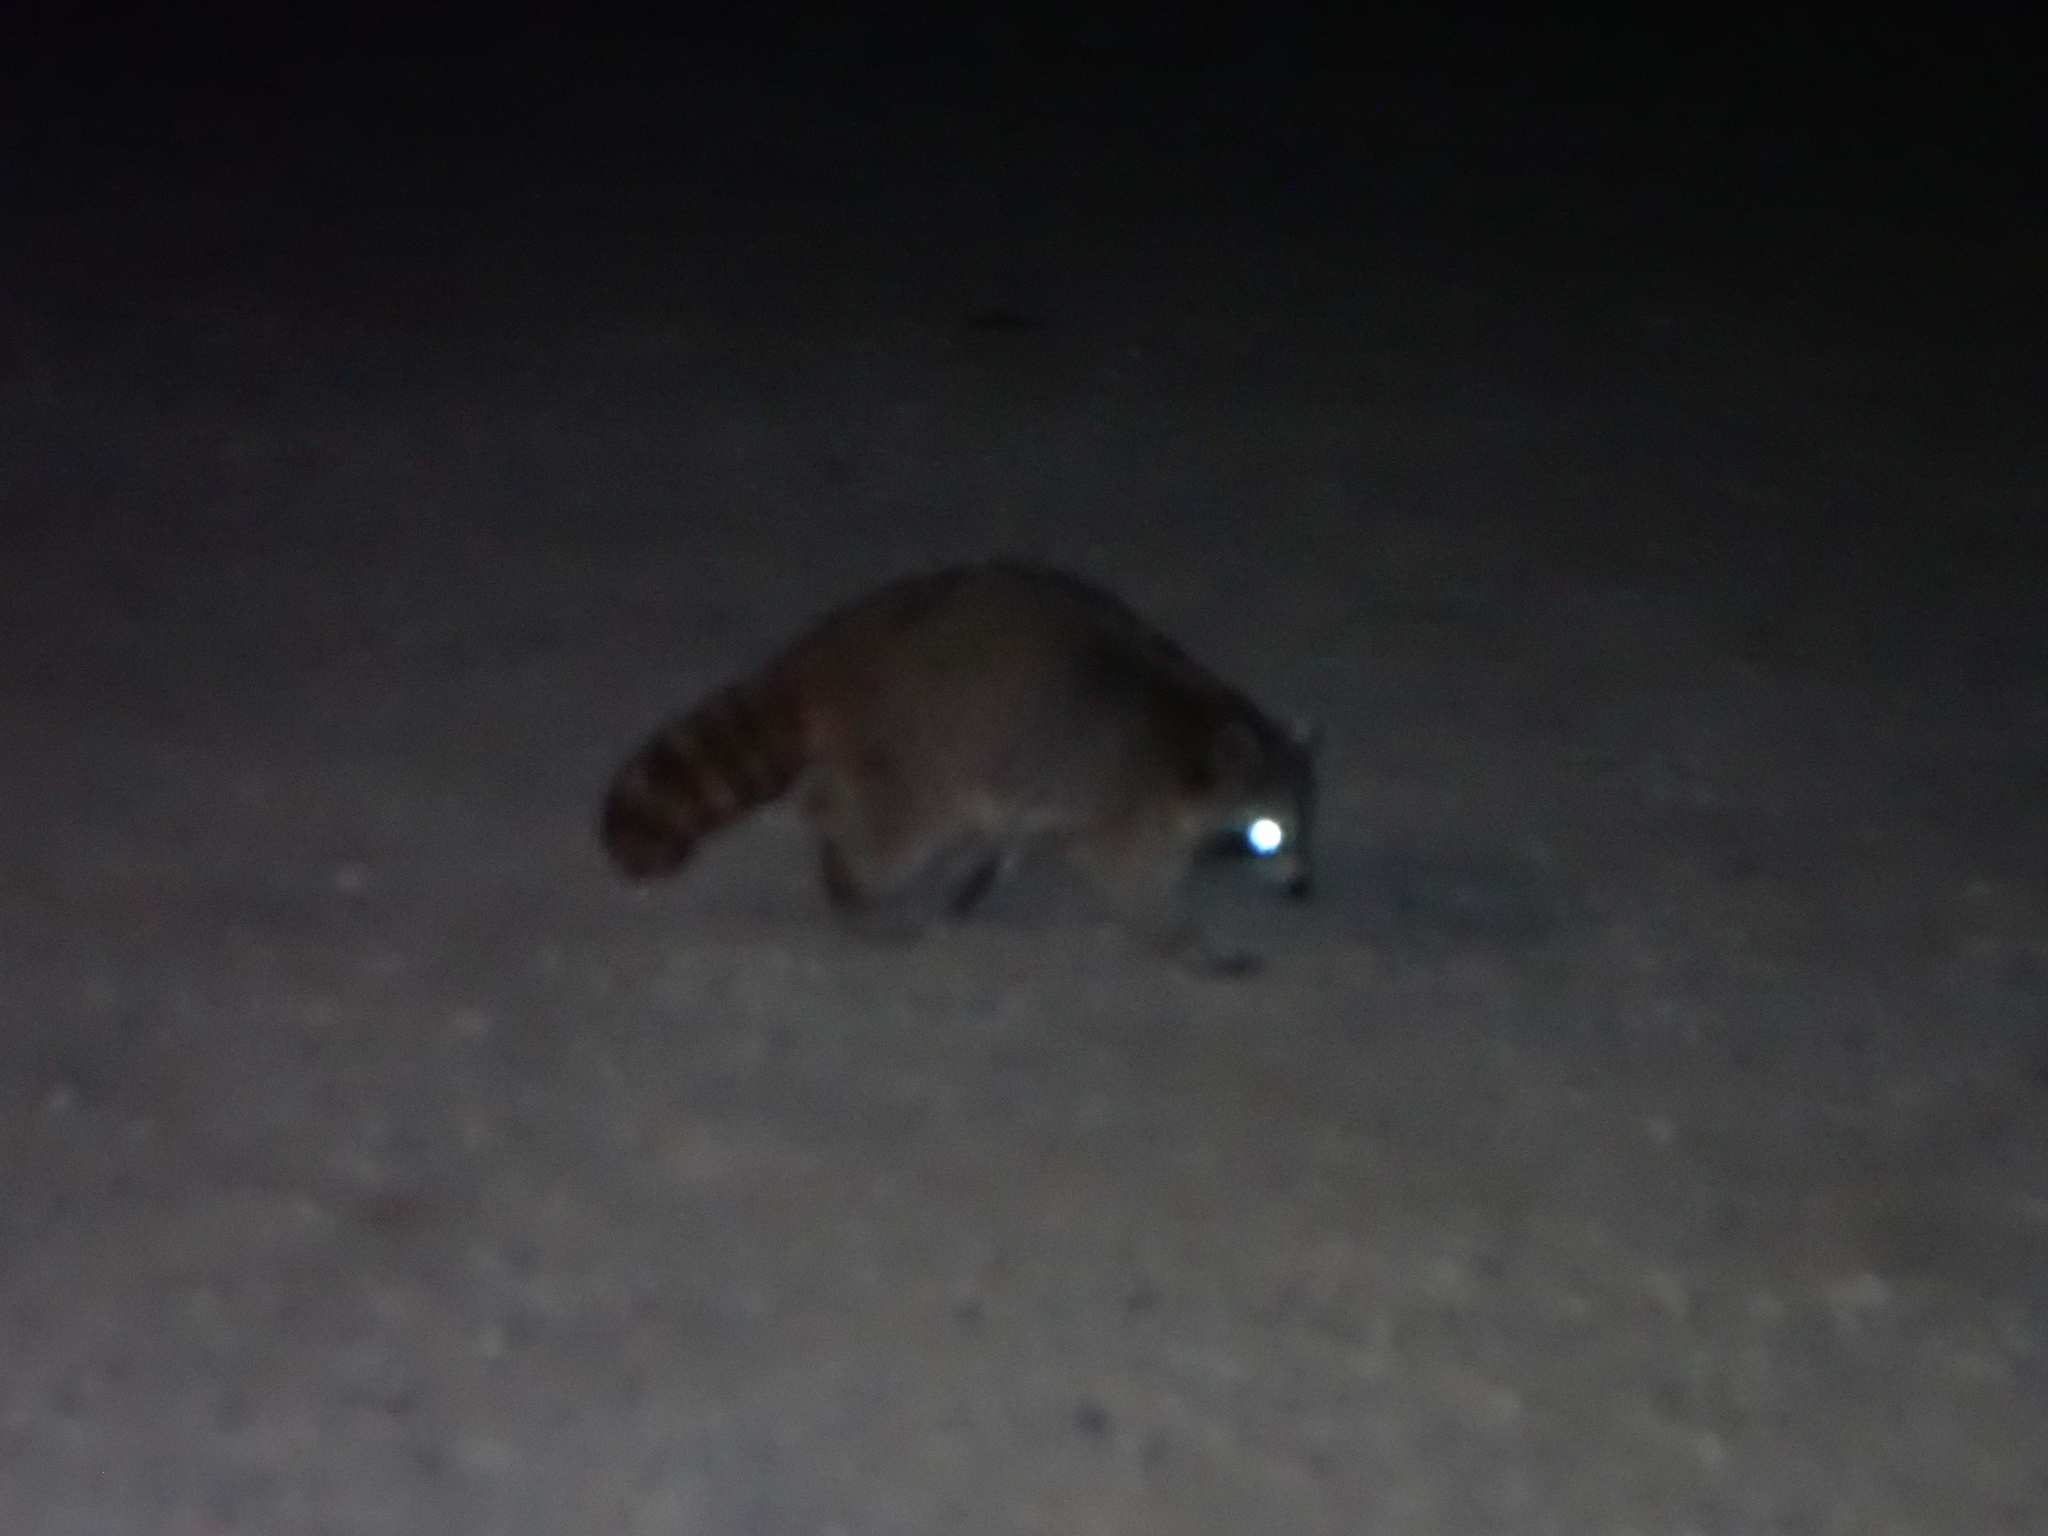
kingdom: Animalia
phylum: Chordata
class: Mammalia
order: Carnivora
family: Procyonidae
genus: Procyon
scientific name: Procyon lotor
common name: Raccoon
